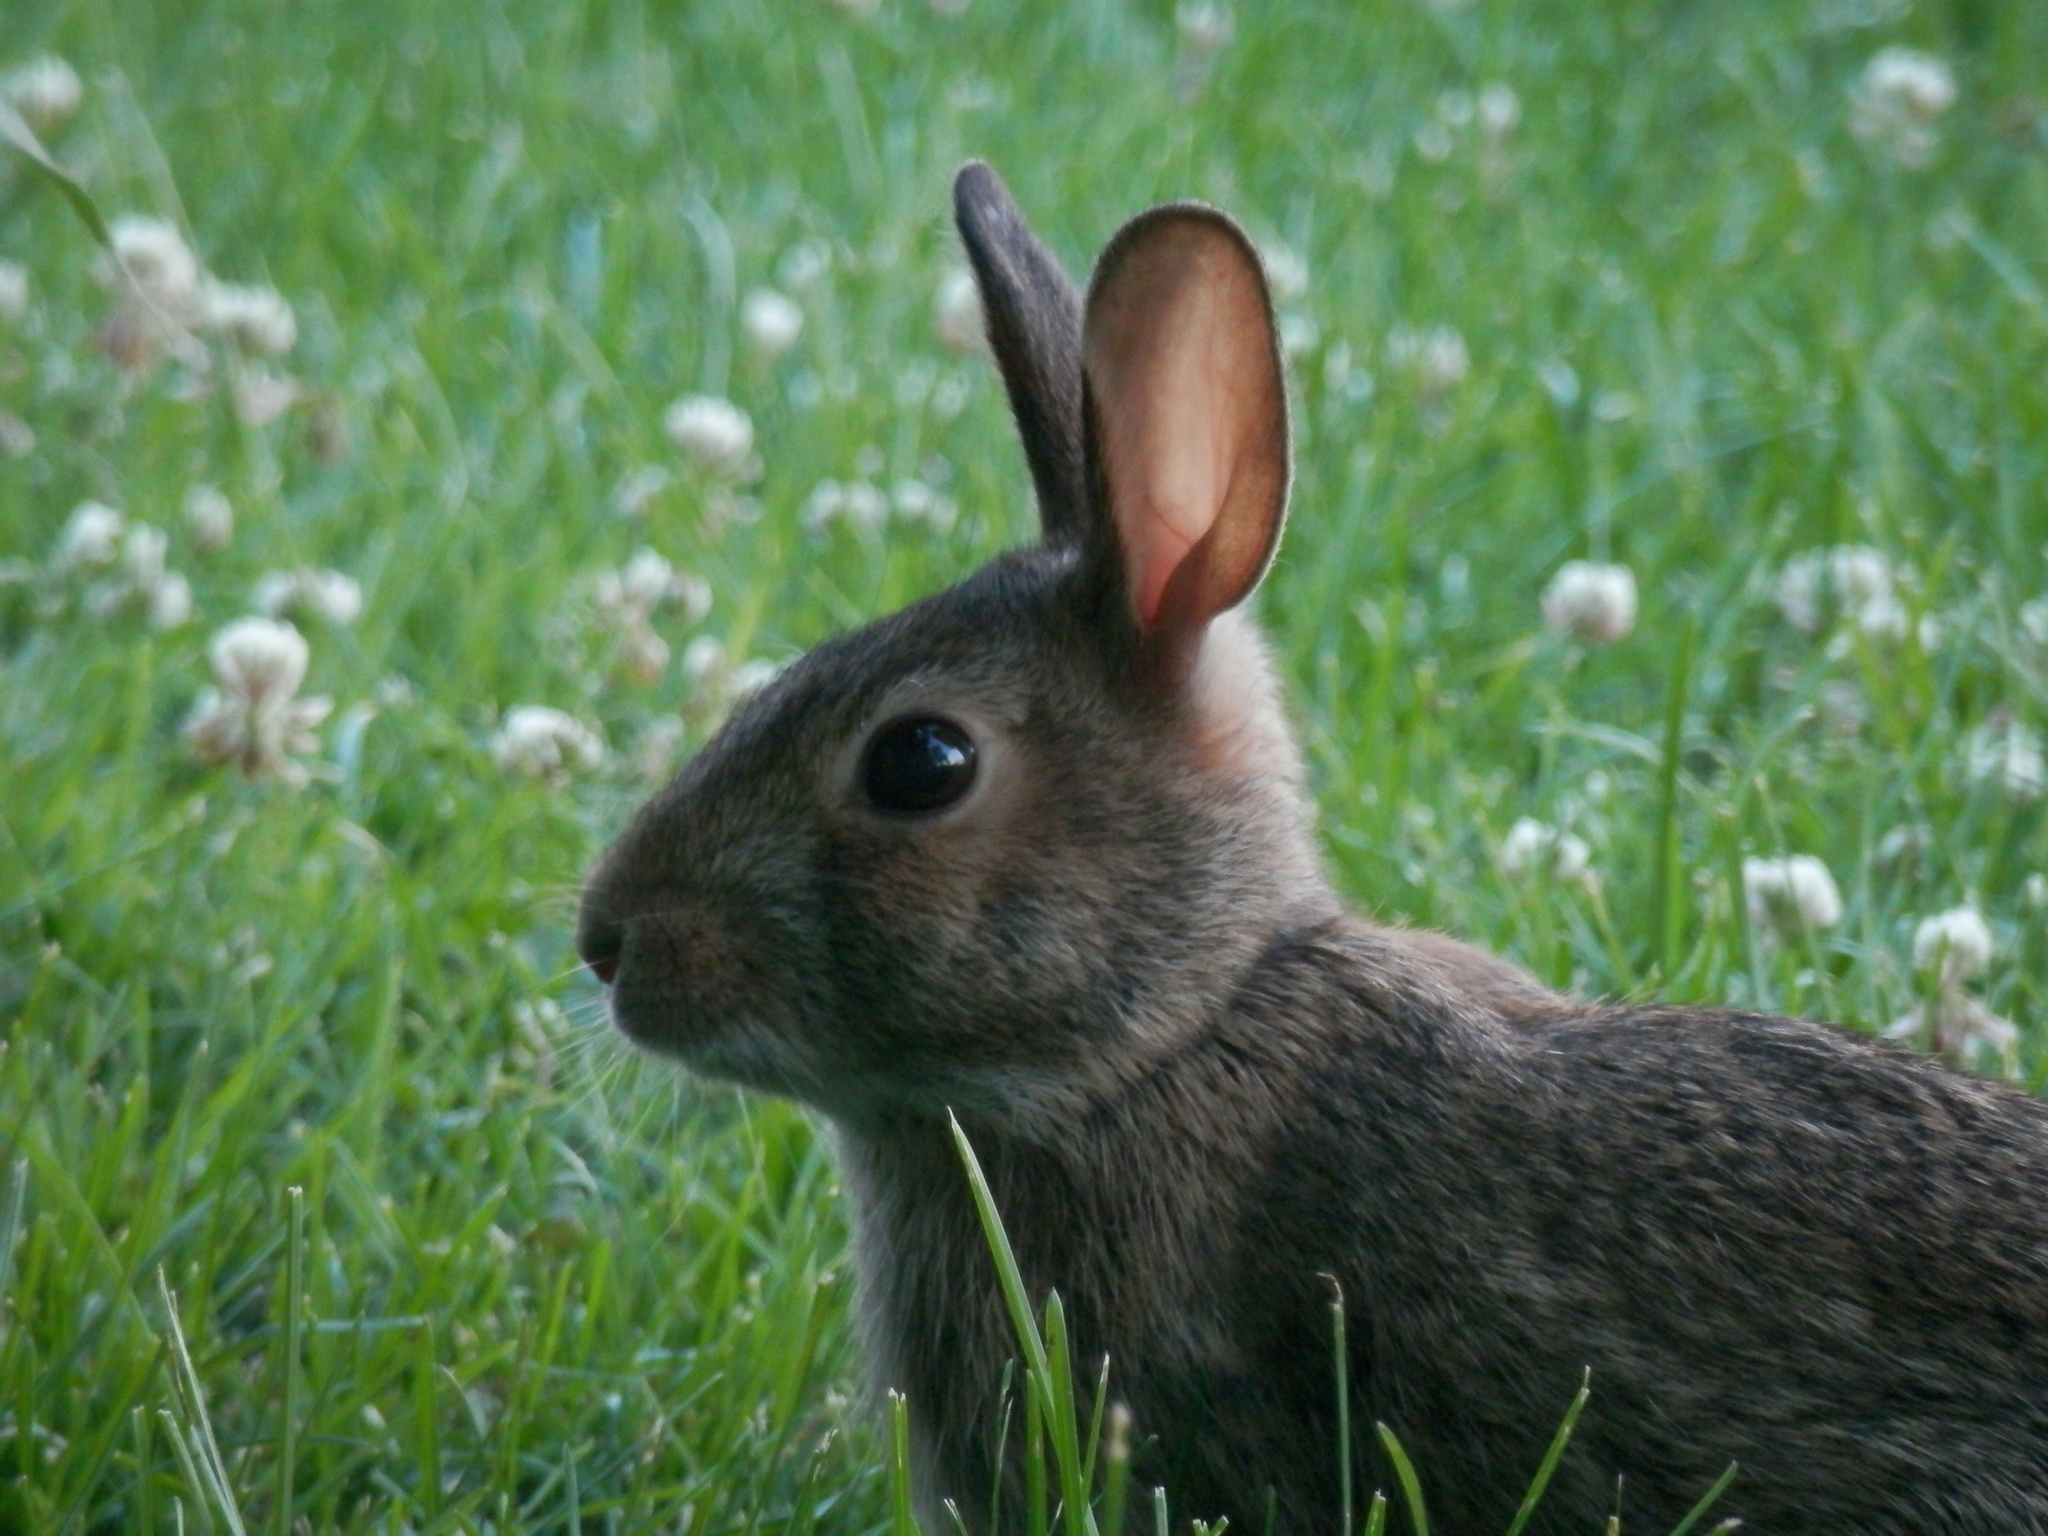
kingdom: Animalia
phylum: Chordata
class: Mammalia
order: Lagomorpha
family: Leporidae
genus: Sylvilagus
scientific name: Sylvilagus floridanus
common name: Eastern cottontail
